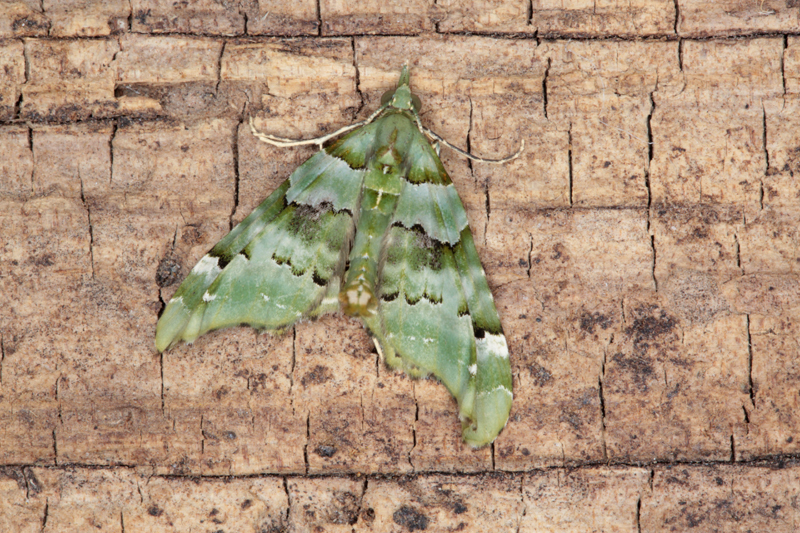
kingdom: Animalia
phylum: Arthropoda
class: Insecta
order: Lepidoptera
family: Geometridae
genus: Elvia
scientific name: Elvia glaucata
